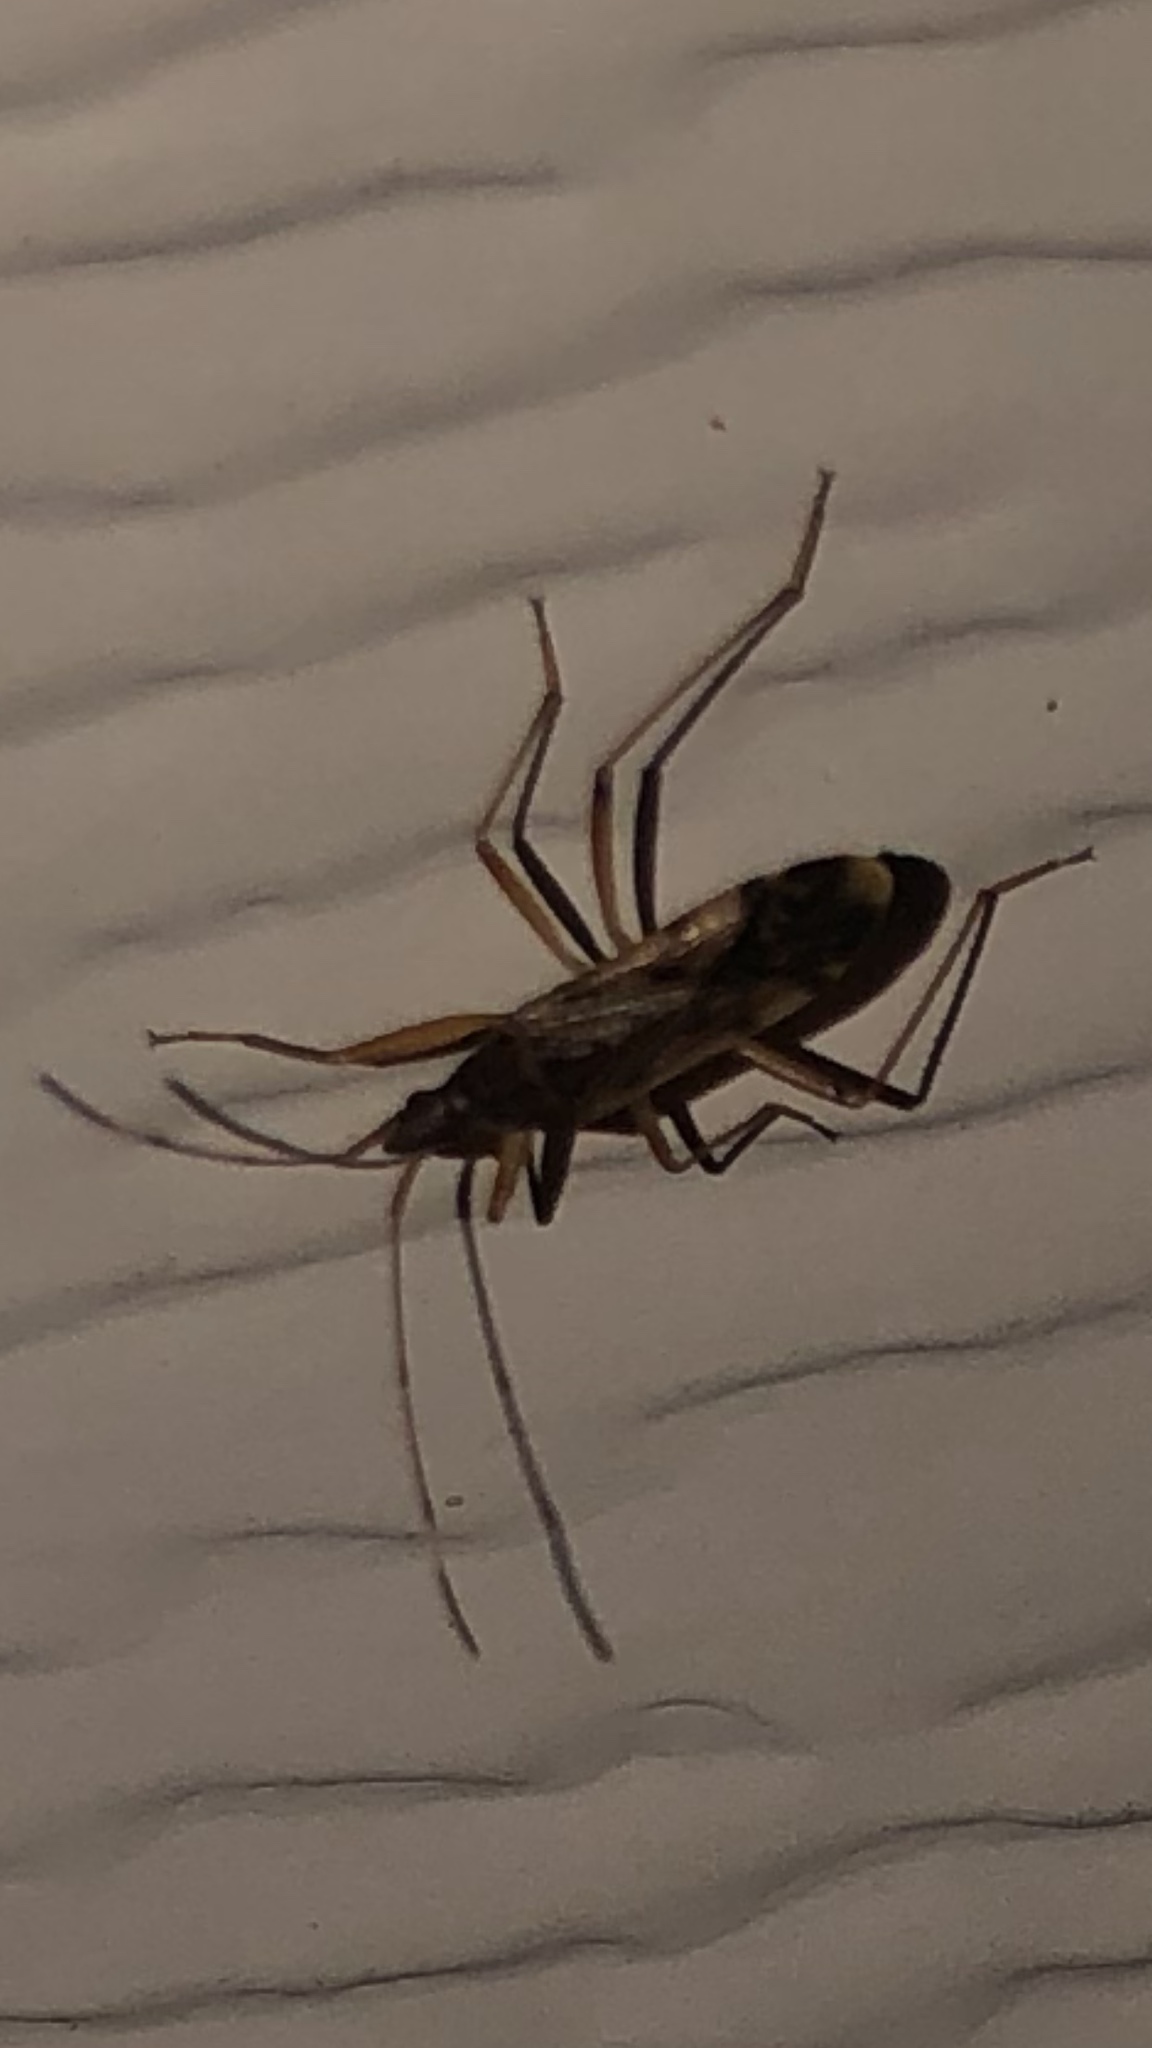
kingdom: Animalia
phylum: Arthropoda
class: Insecta
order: Hemiptera
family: Rhyparochromidae
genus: Ozophora
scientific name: Ozophora depicturata
